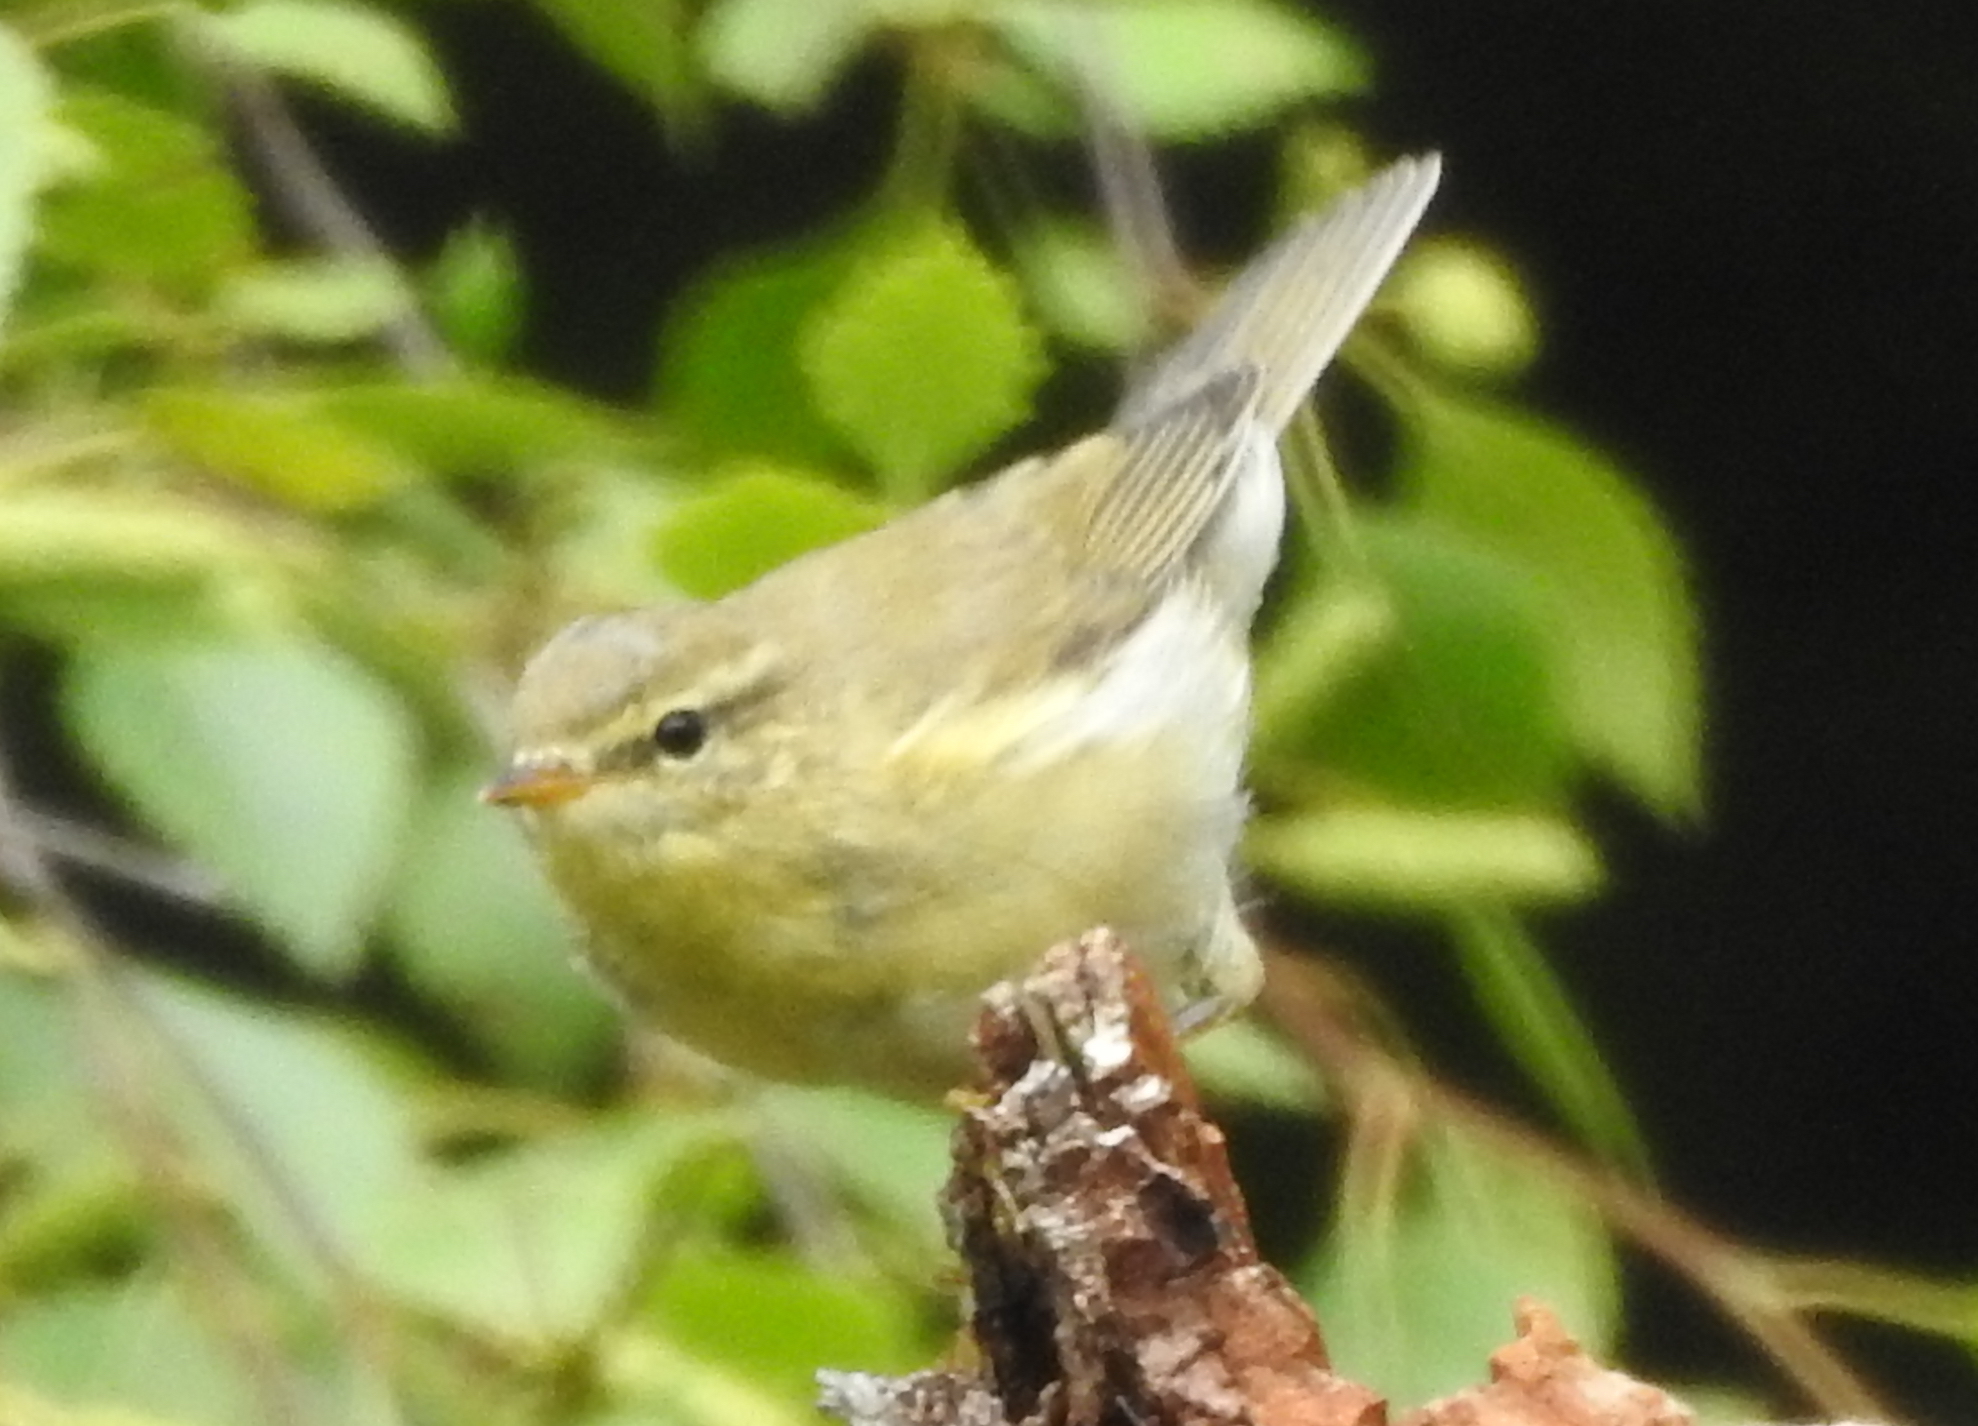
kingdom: Animalia
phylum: Chordata
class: Aves
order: Passeriformes
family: Phylloscopidae
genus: Phylloscopus
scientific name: Phylloscopus trochilus
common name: Willow warbler
